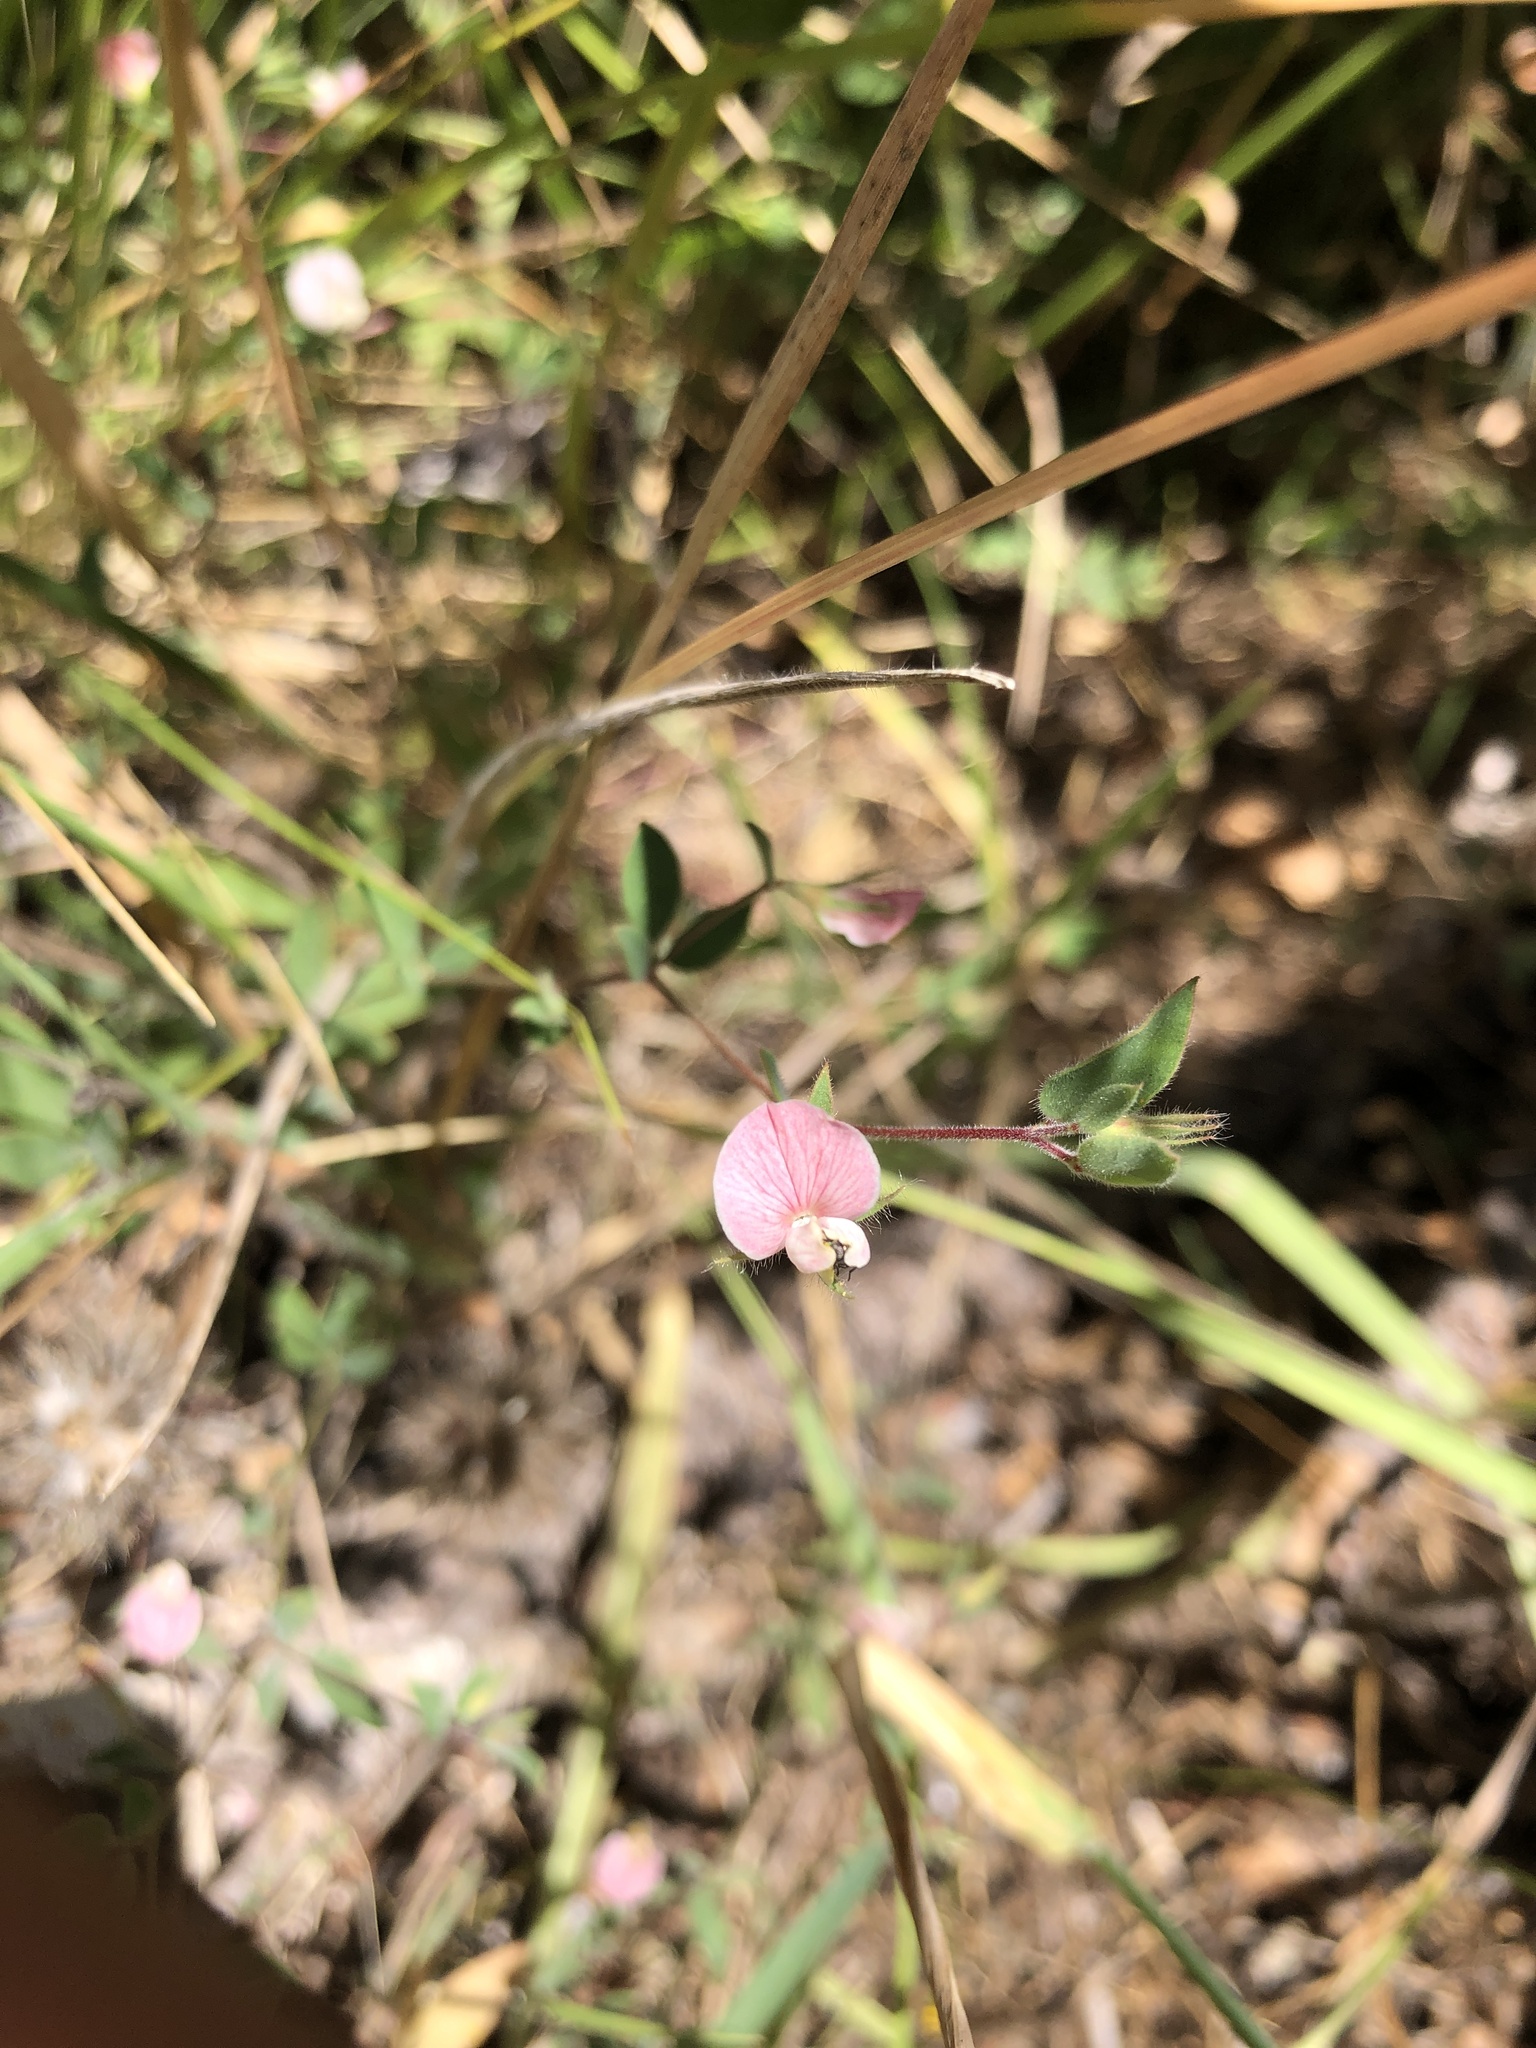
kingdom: Plantae
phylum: Tracheophyta
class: Magnoliopsida
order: Fabales
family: Fabaceae
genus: Acmispon
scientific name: Acmispon americanus
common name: American bird's-foot trefoil
